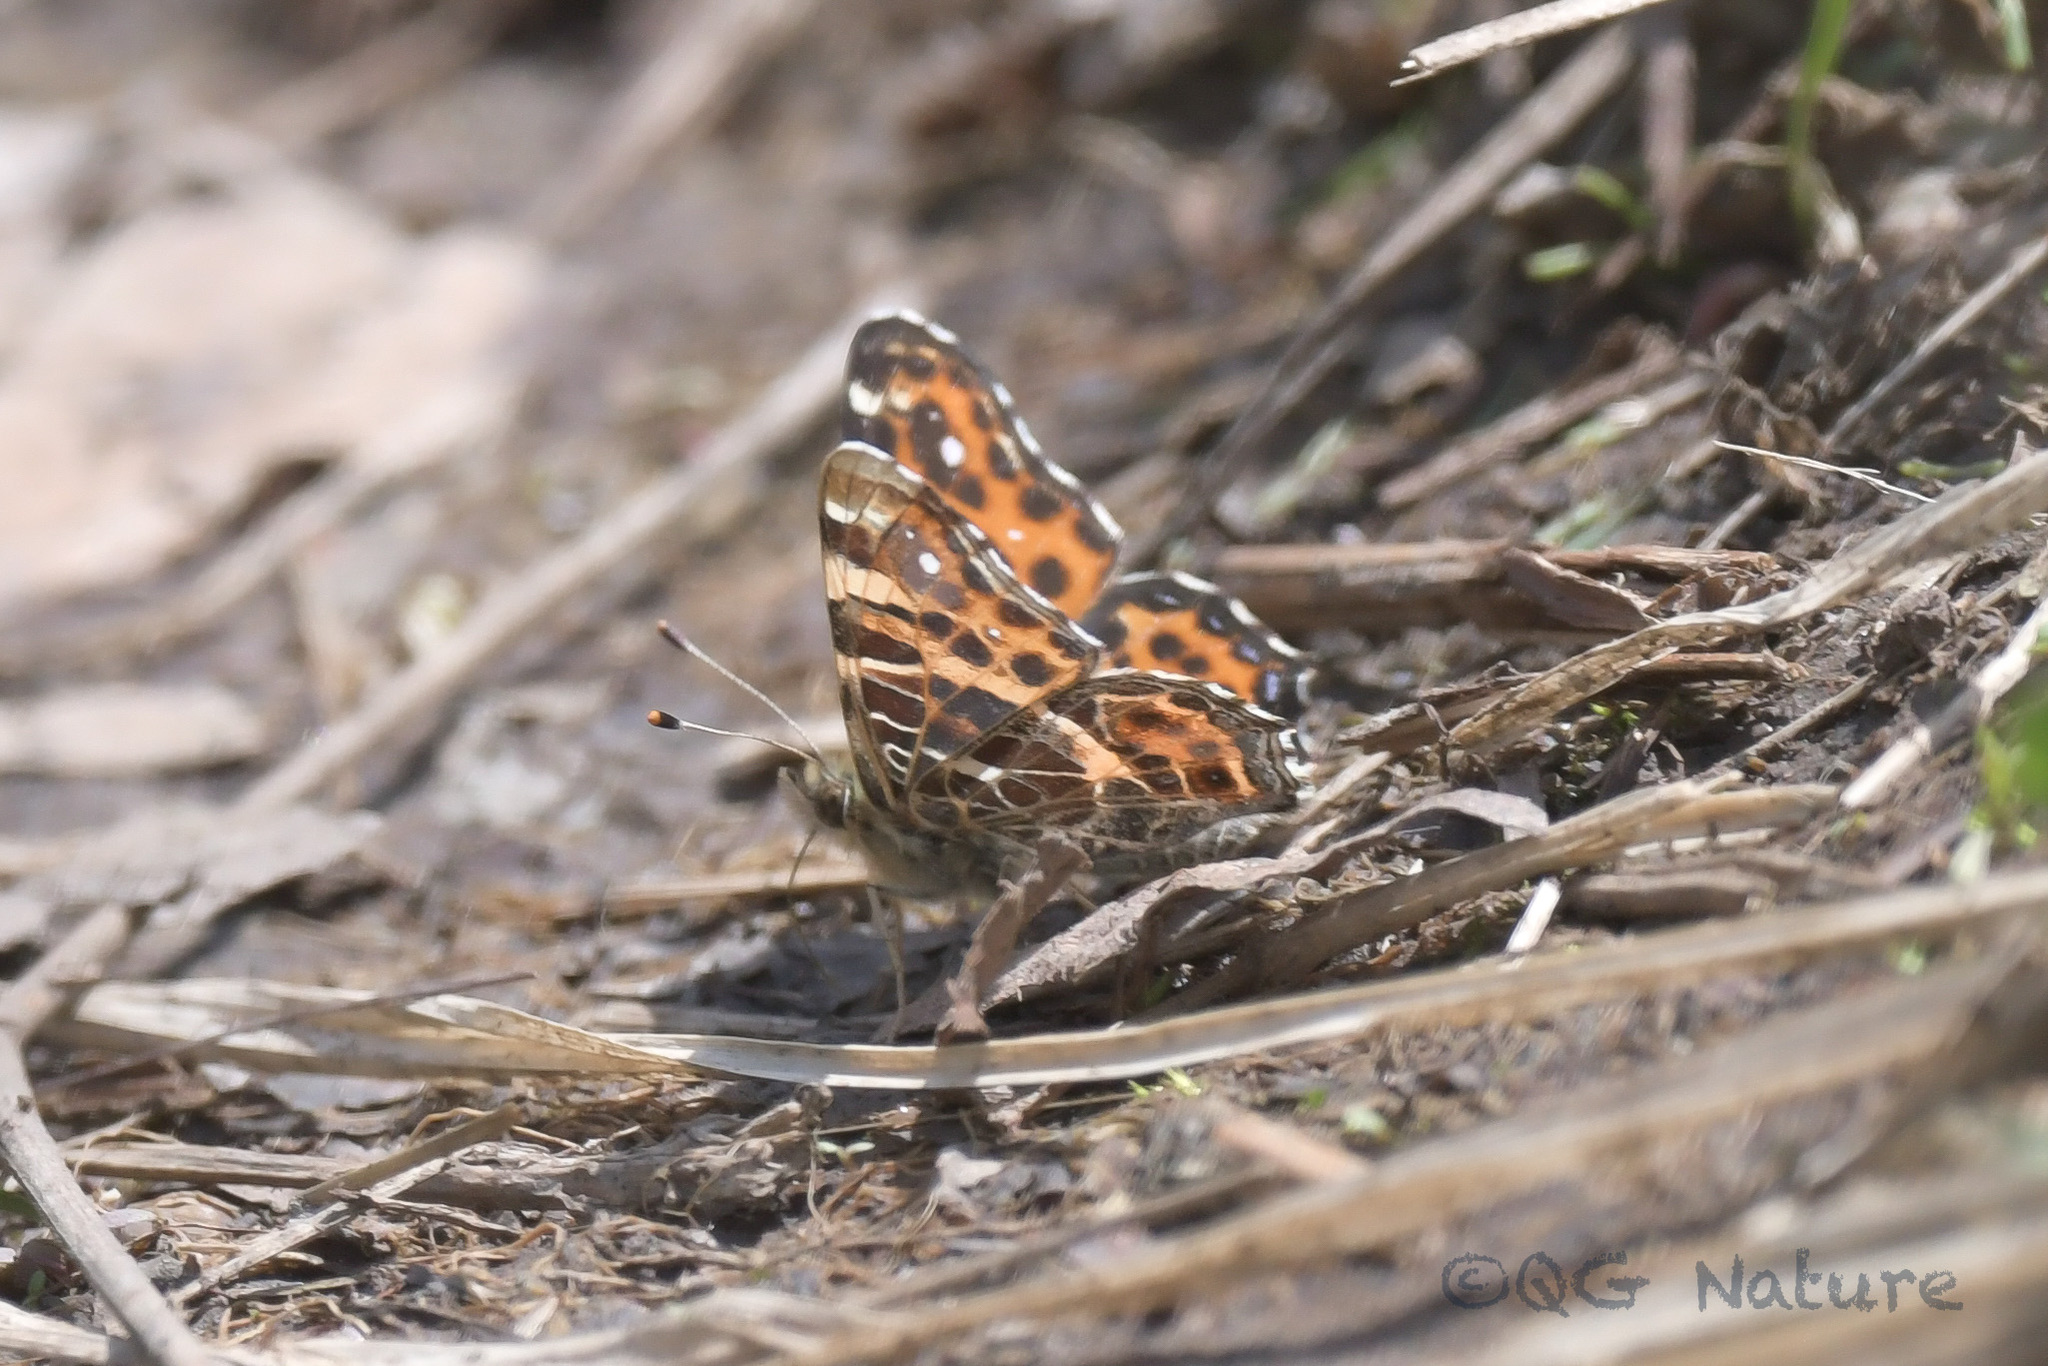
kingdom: Animalia
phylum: Arthropoda
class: Insecta
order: Lepidoptera
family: Nymphalidae
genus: Araschnia
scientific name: Araschnia levana
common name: Map butterfly
